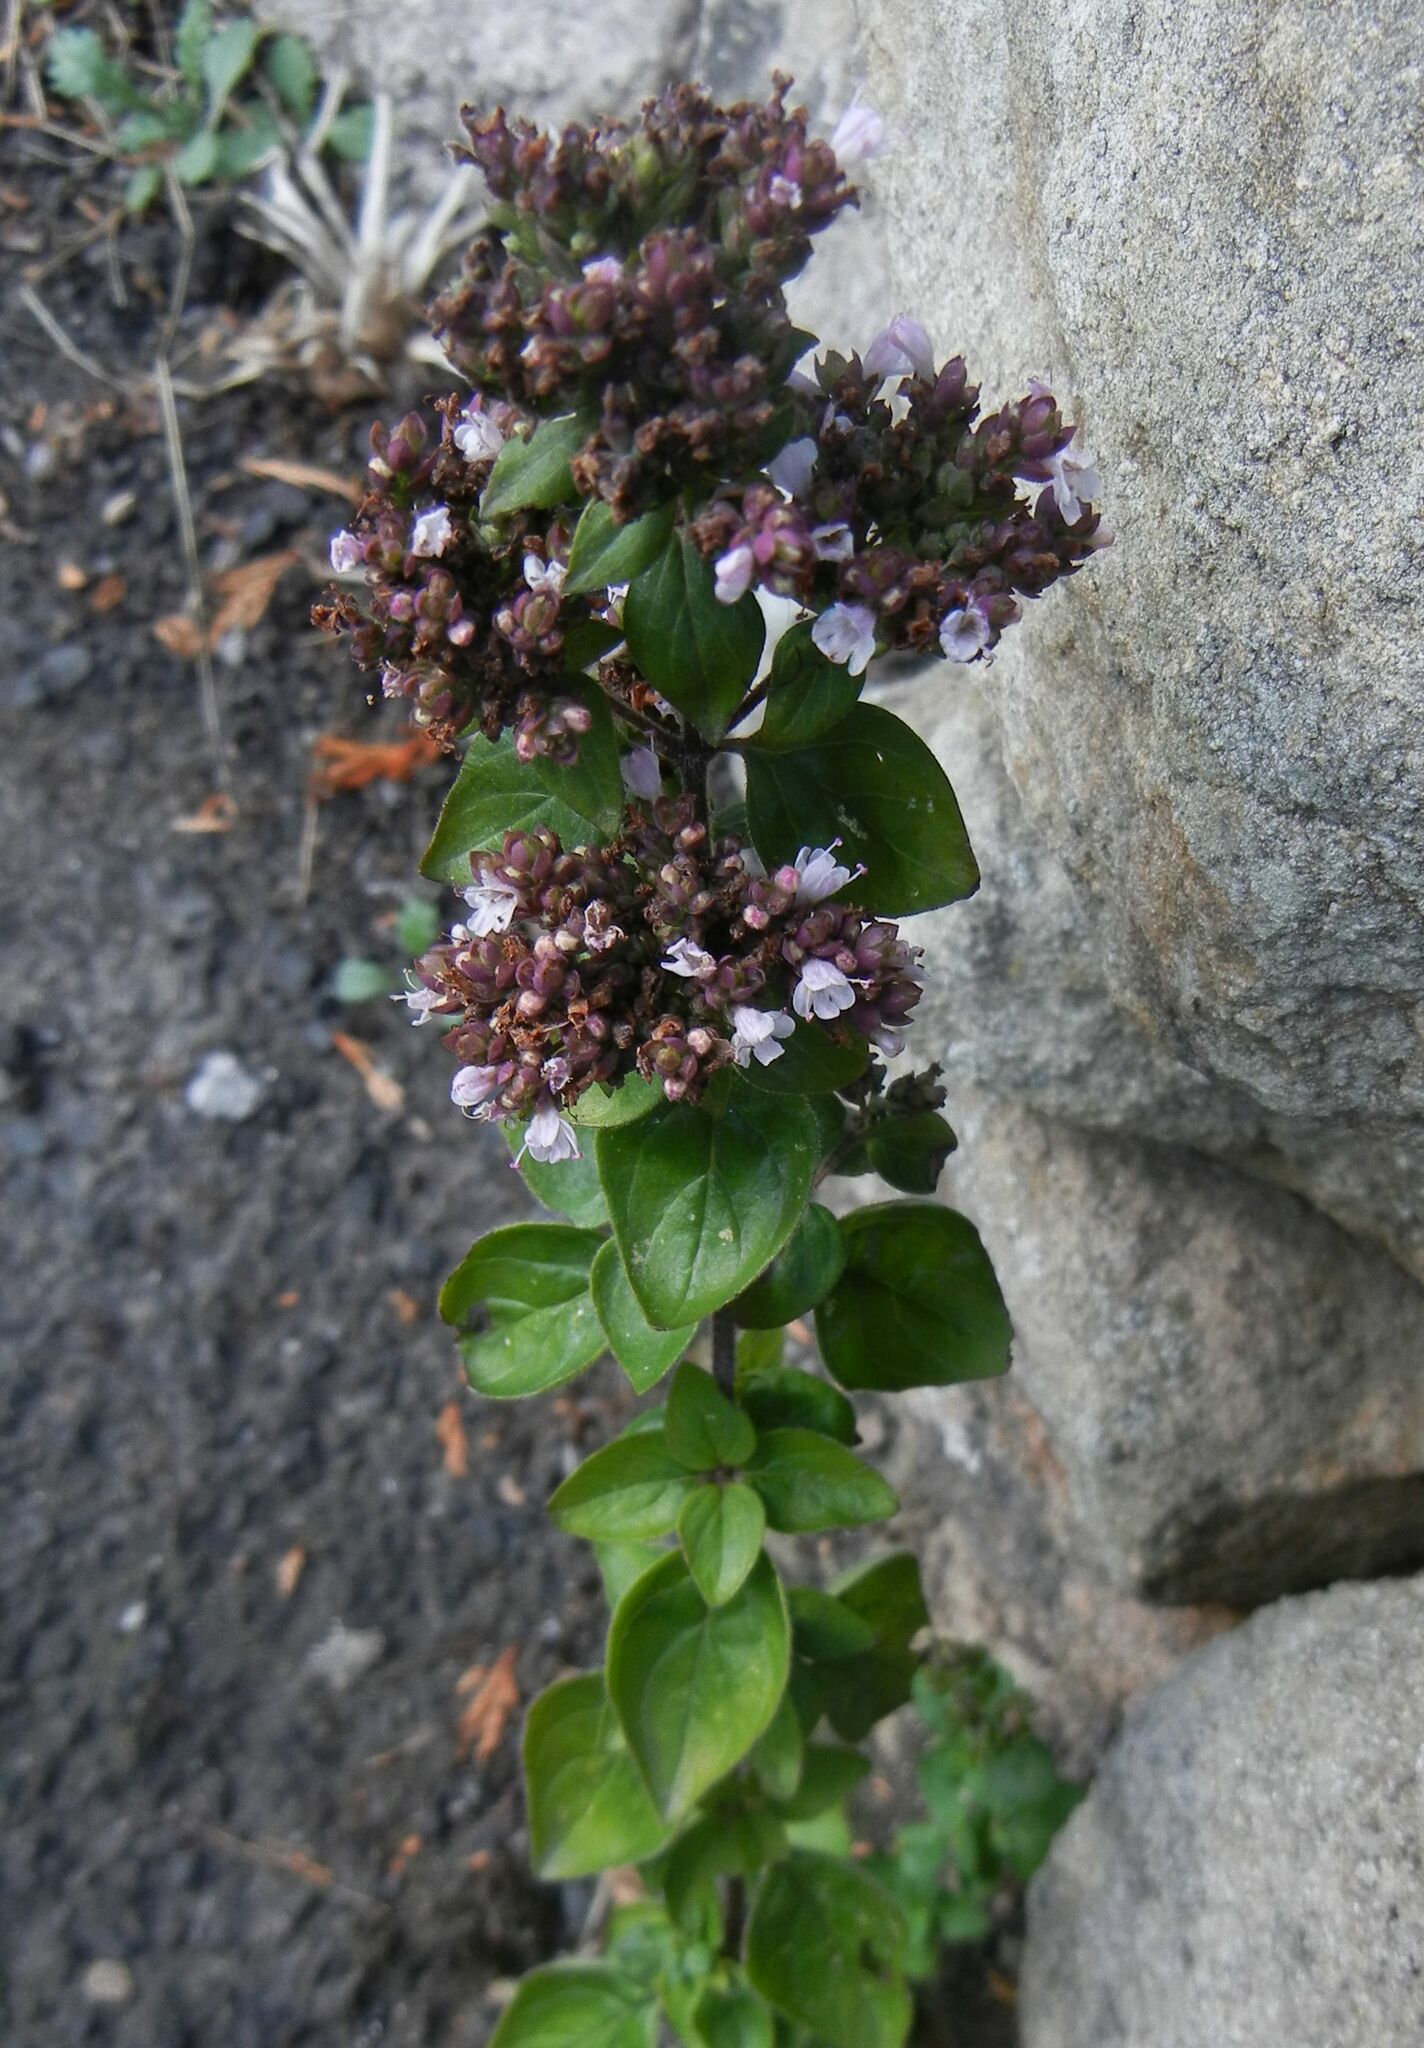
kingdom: Plantae
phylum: Tracheophyta
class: Magnoliopsida
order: Lamiales
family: Lamiaceae
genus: Origanum
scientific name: Origanum vulgare
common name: Wild marjoram
